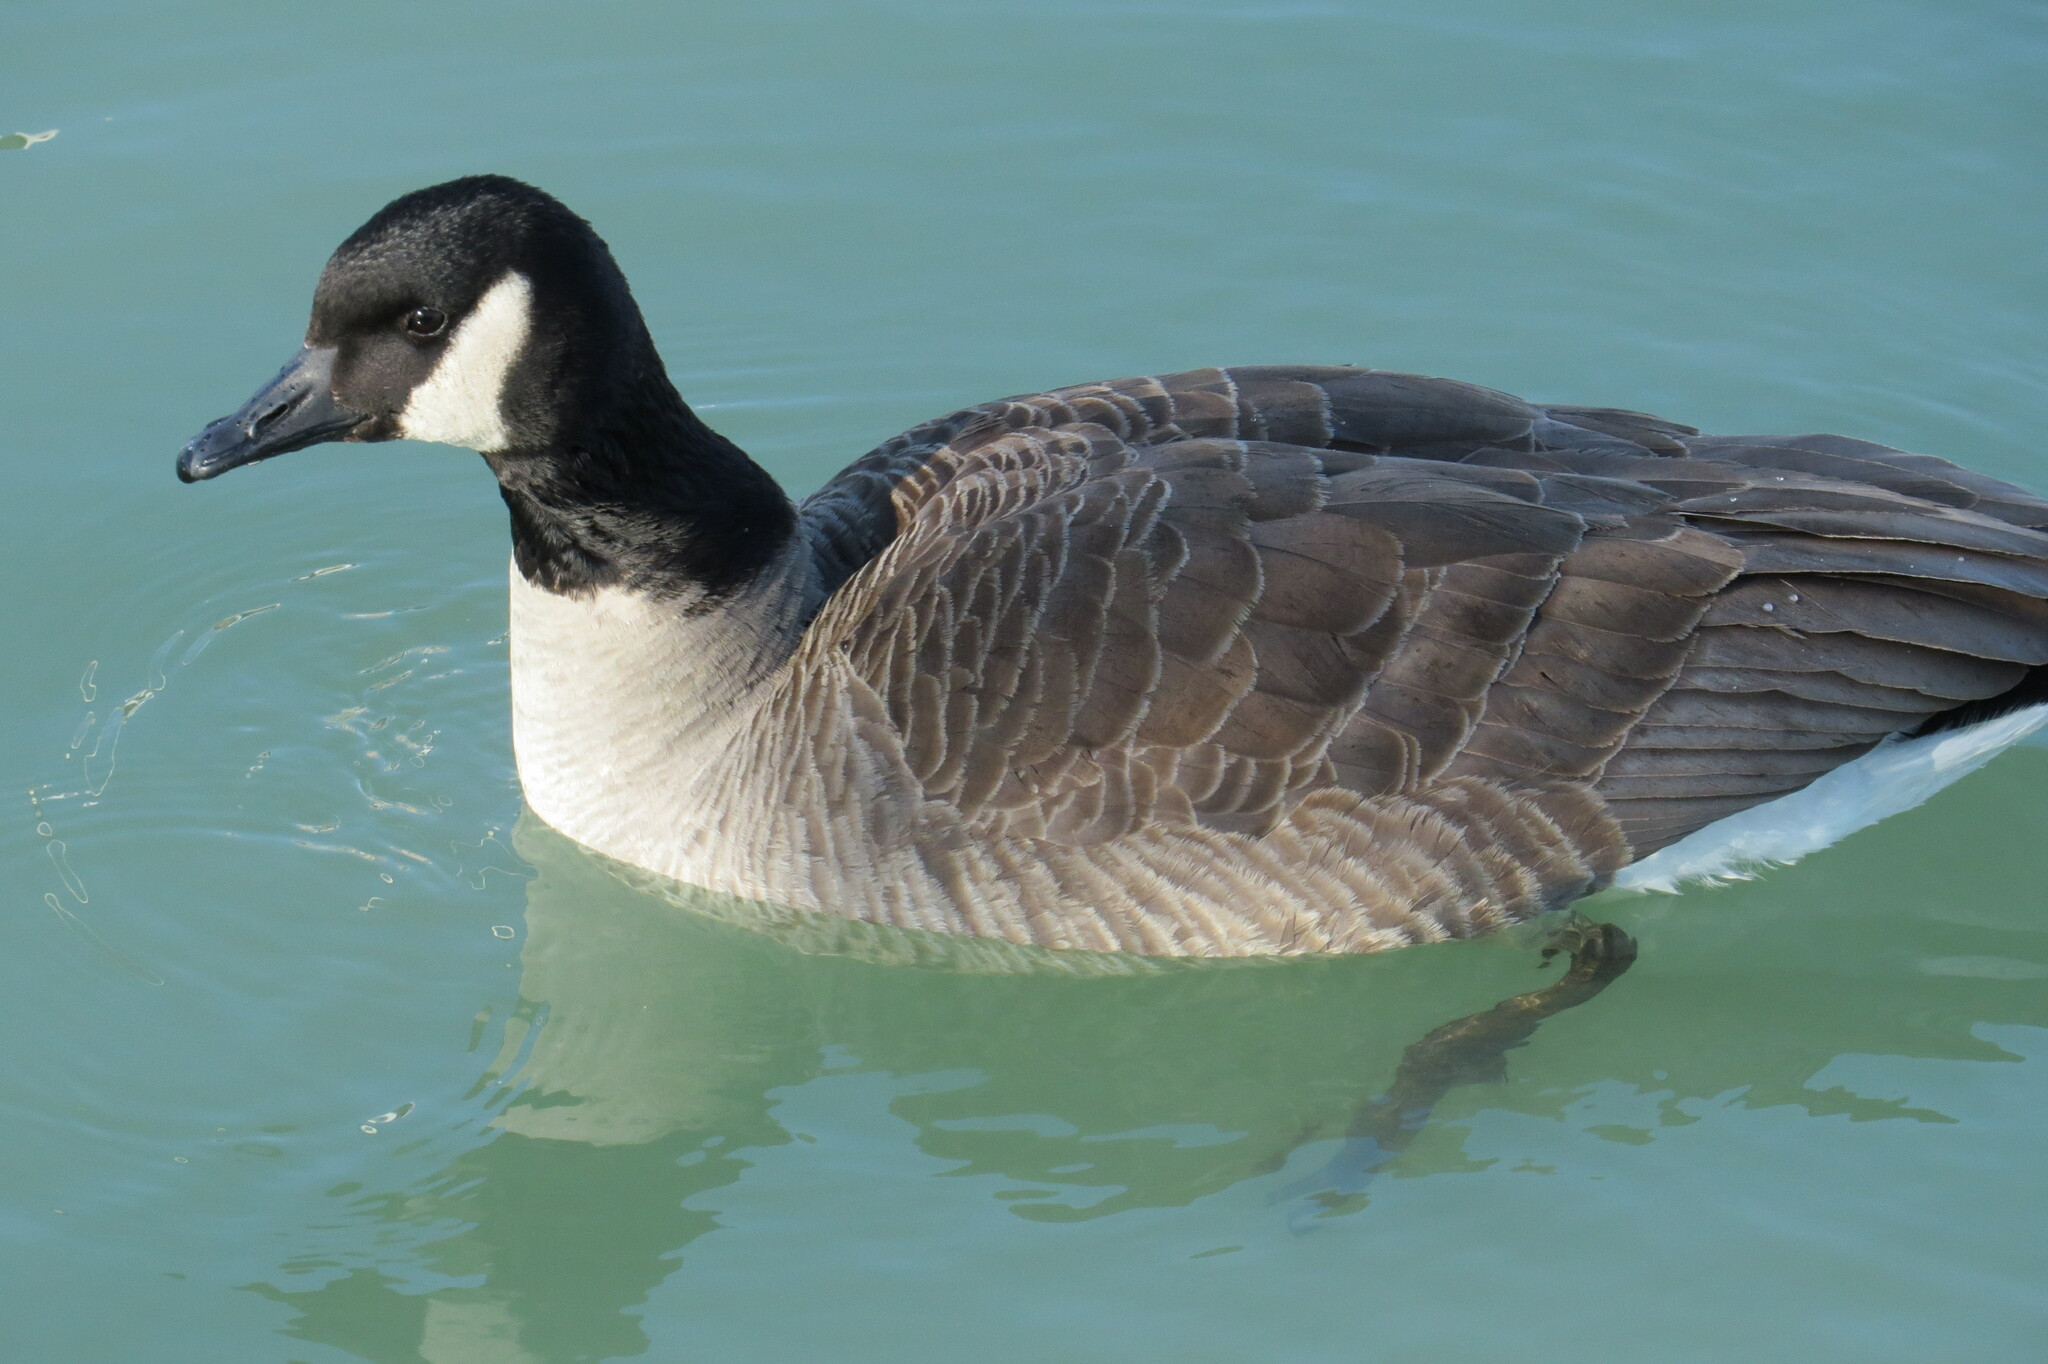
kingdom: Animalia
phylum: Chordata
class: Aves
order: Anseriformes
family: Anatidae
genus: Branta
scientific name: Branta canadensis
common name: Canada goose
